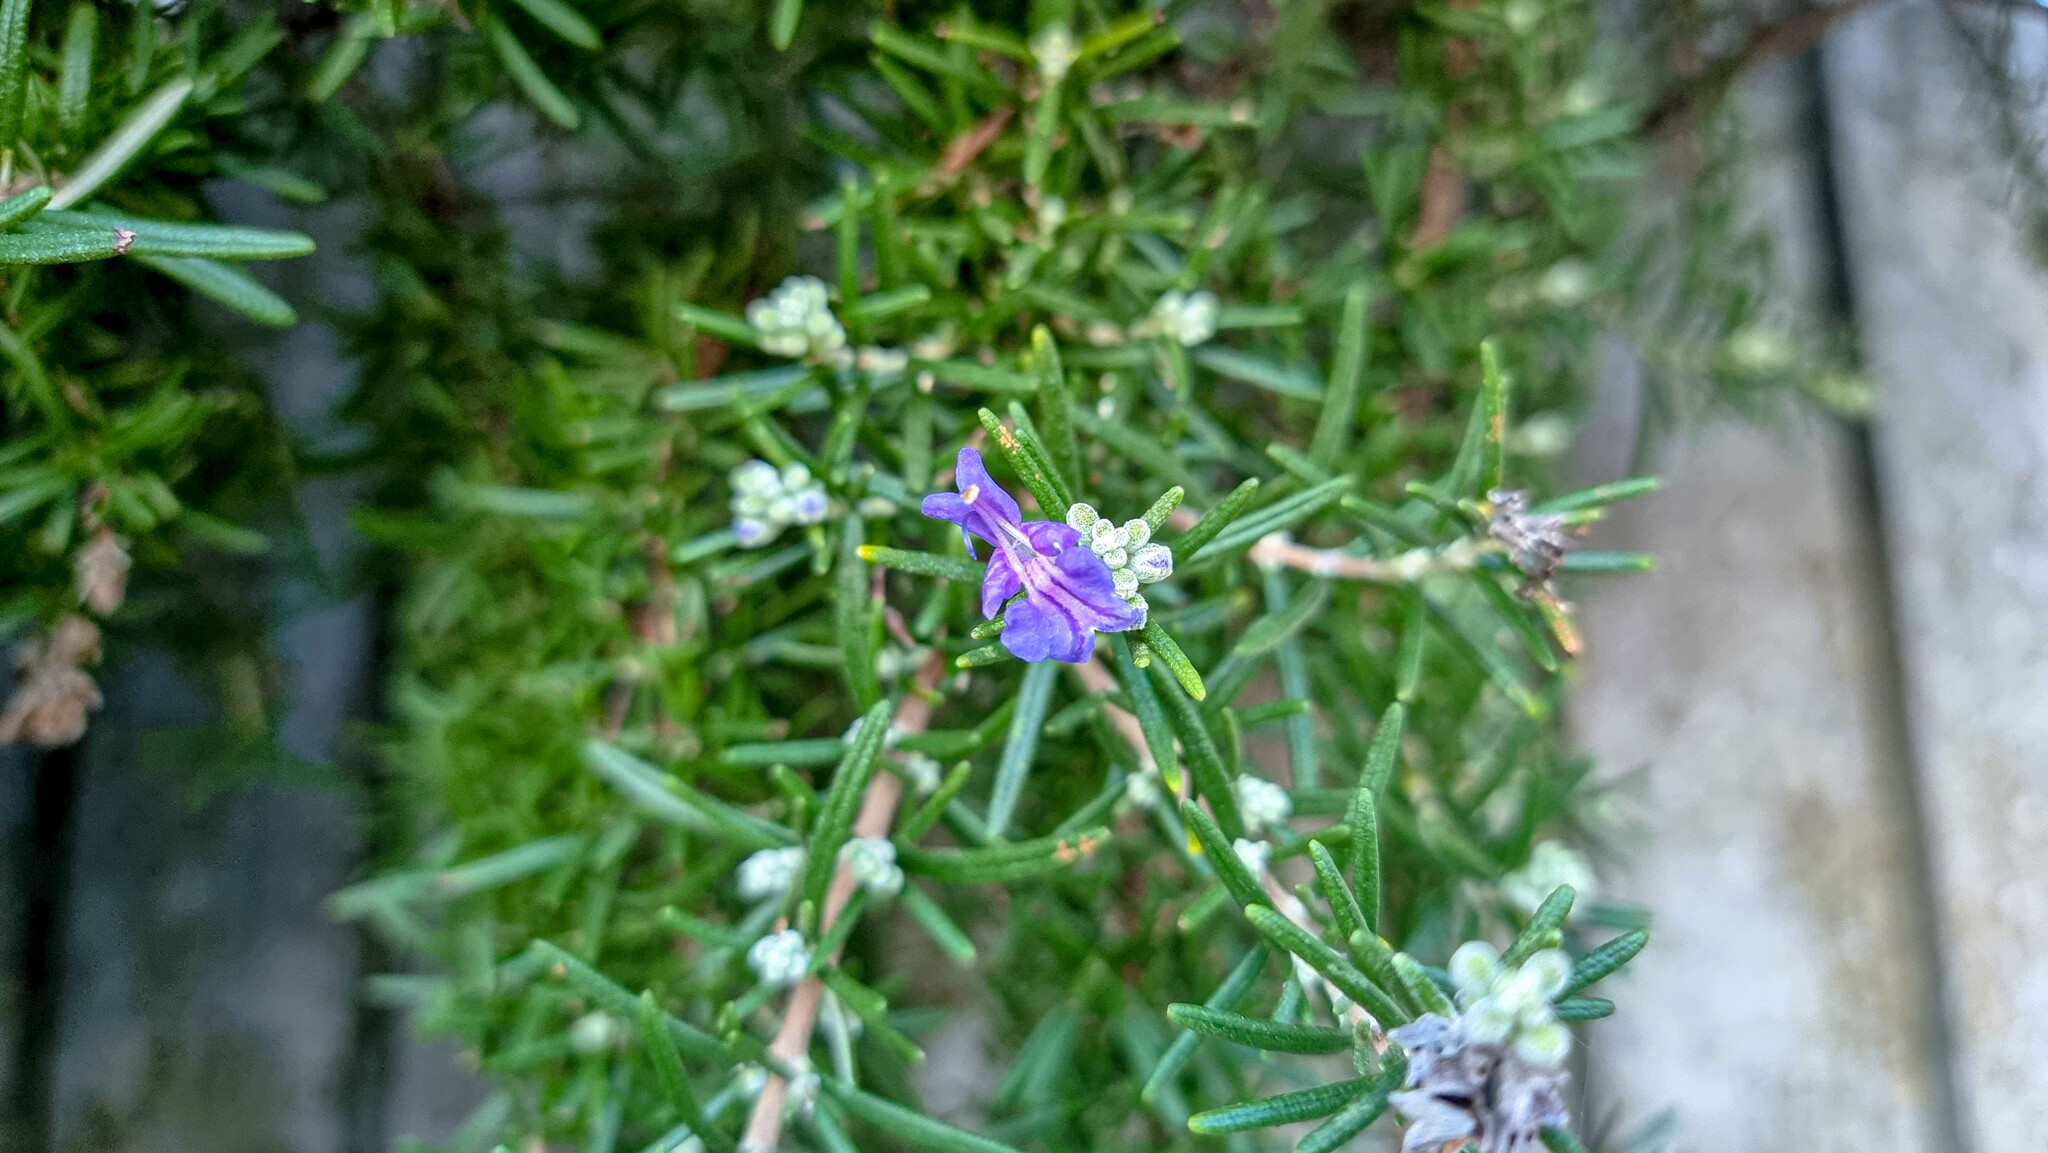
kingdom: Plantae
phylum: Tracheophyta
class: Magnoliopsida
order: Lamiales
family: Lamiaceae
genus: Salvia
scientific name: Salvia rosmarinus
